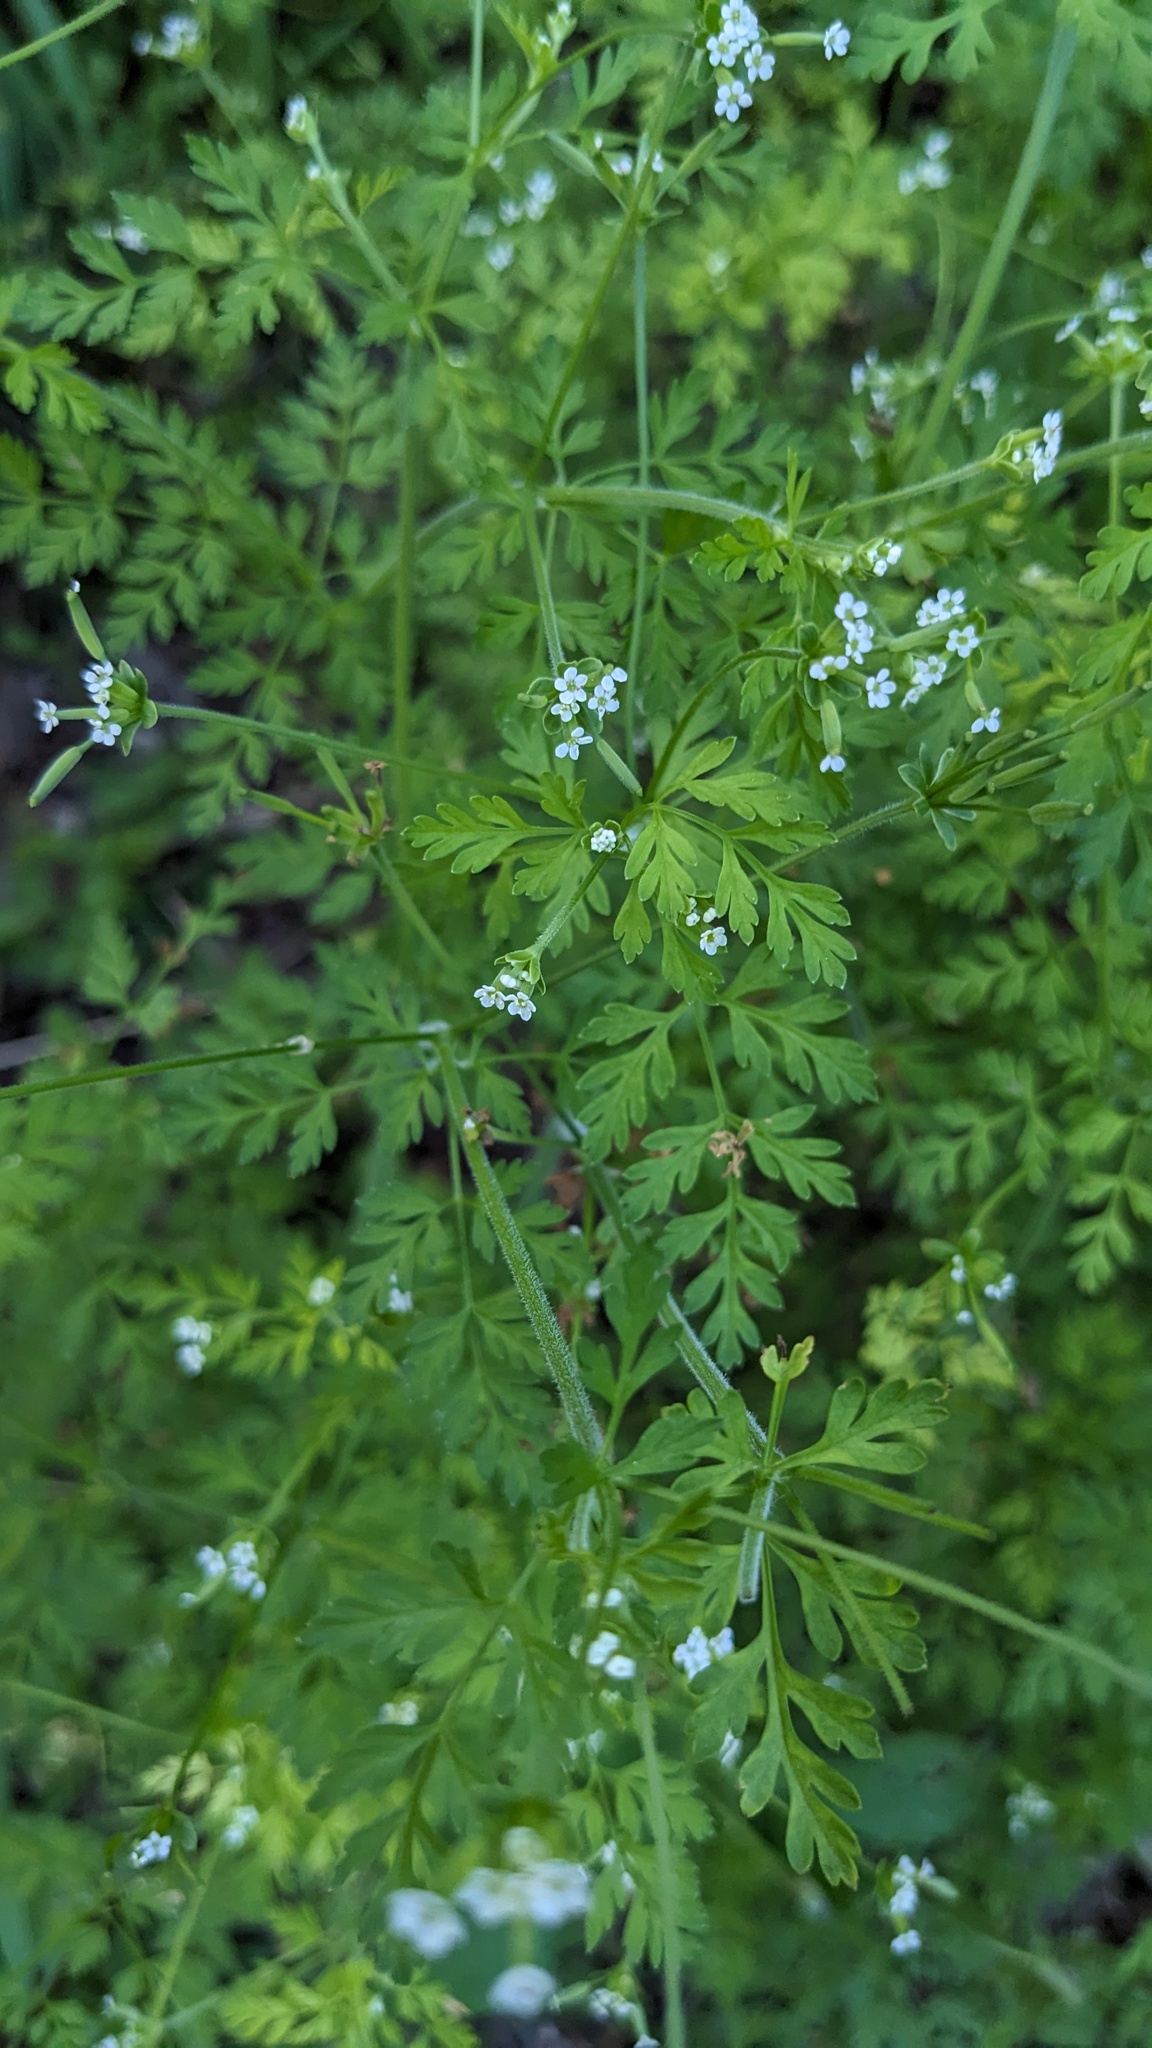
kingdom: Plantae
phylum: Tracheophyta
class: Magnoliopsida
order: Apiales
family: Apiaceae
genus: Chaerophyllum
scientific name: Chaerophyllum tainturieri
